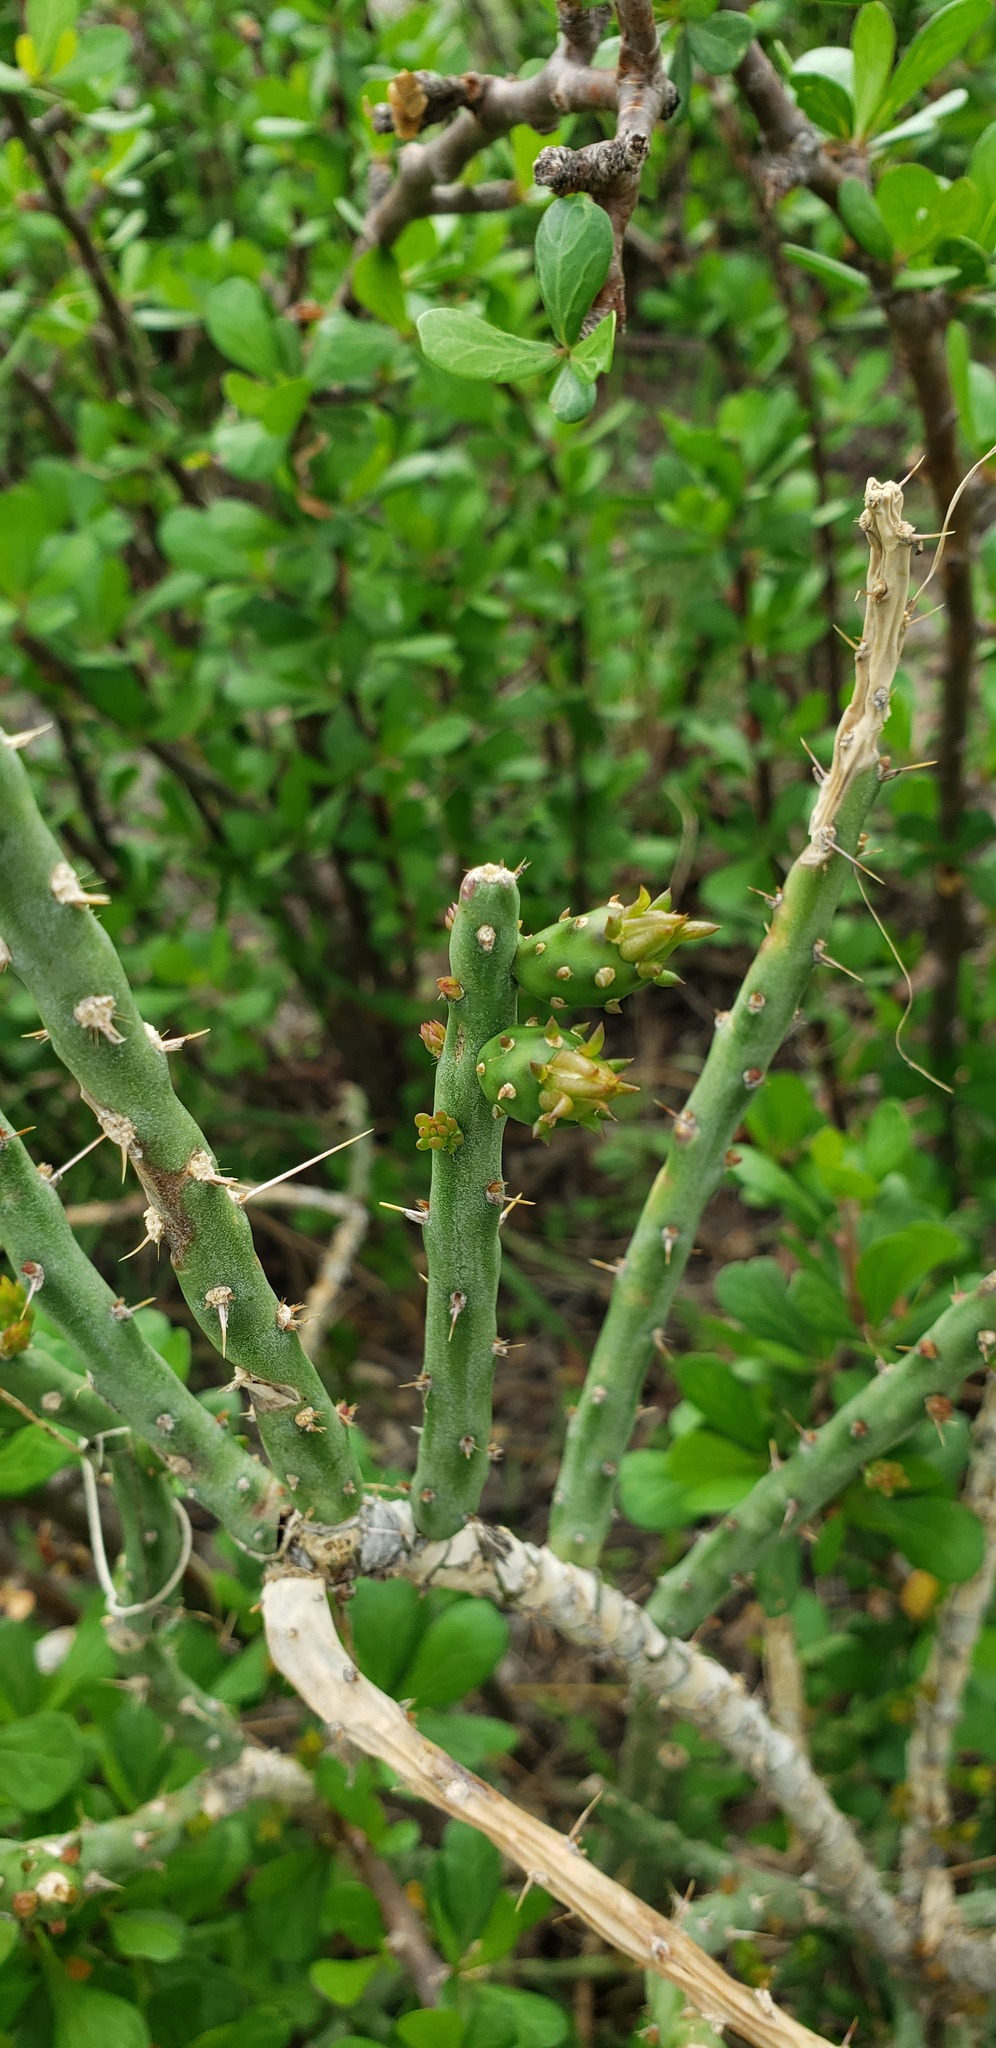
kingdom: Plantae
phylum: Tracheophyta
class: Magnoliopsida
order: Caryophyllales
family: Cactaceae
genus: Cylindropuntia
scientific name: Cylindropuntia leptocaulis
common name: Christmas cactus
